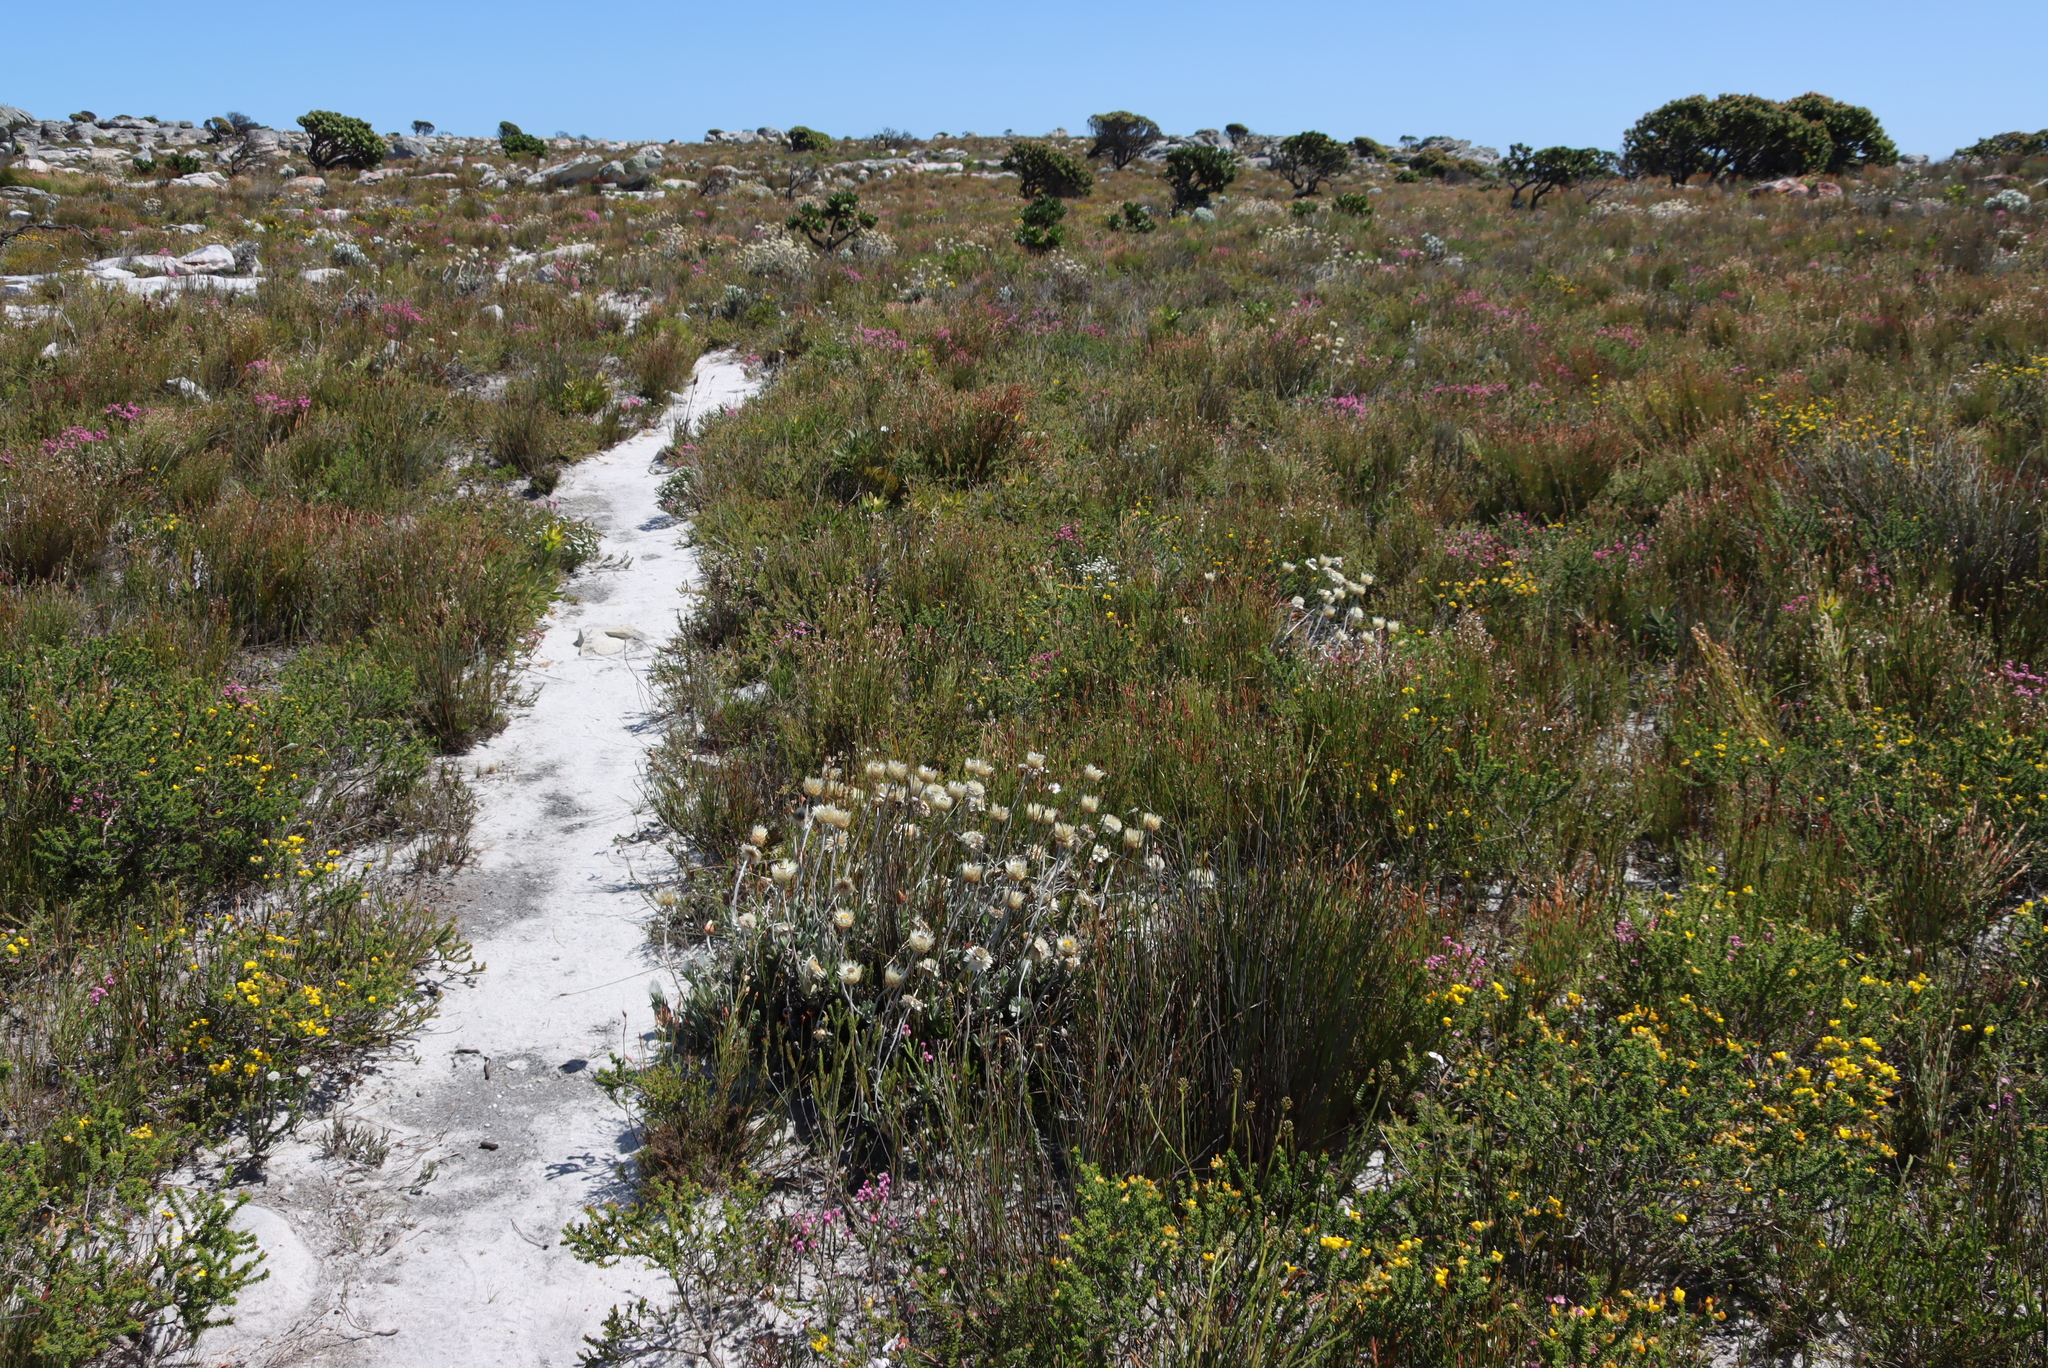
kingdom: Plantae
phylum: Tracheophyta
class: Magnoliopsida
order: Asterales
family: Asteraceae
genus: Syncarpha
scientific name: Syncarpha speciosissima
